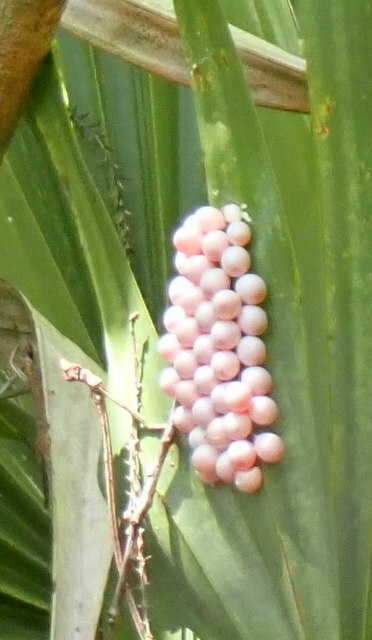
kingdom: Animalia
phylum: Mollusca
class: Gastropoda
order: Architaenioglossa
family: Ampullariidae
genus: Pomacea
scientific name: Pomacea paludosa
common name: Florida applesnail
